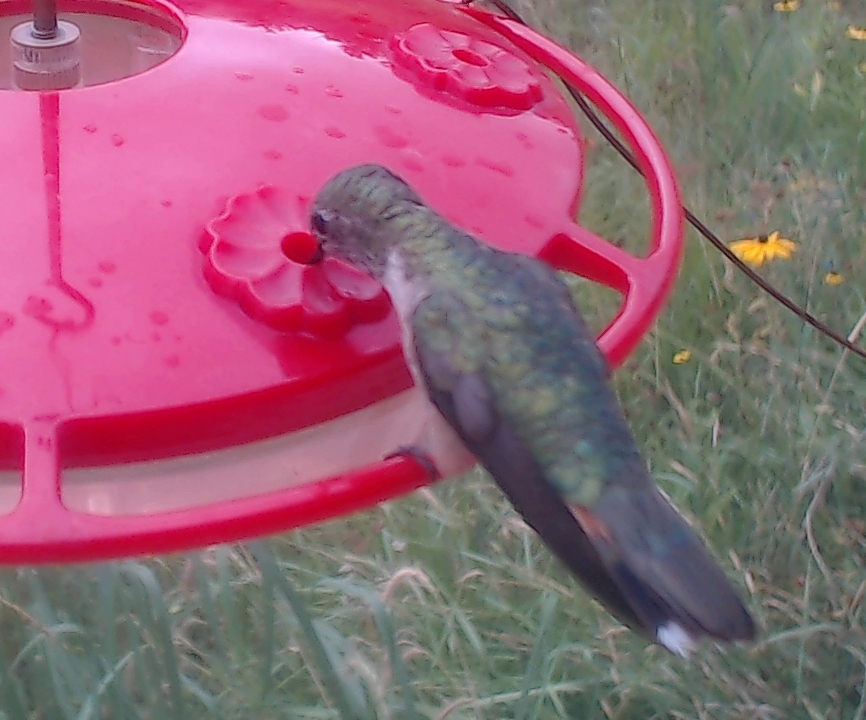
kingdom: Animalia
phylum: Chordata
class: Aves
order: Apodiformes
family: Trochilidae
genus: Selasphorus
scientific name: Selasphorus platycercus
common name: Broad-tailed hummingbird
